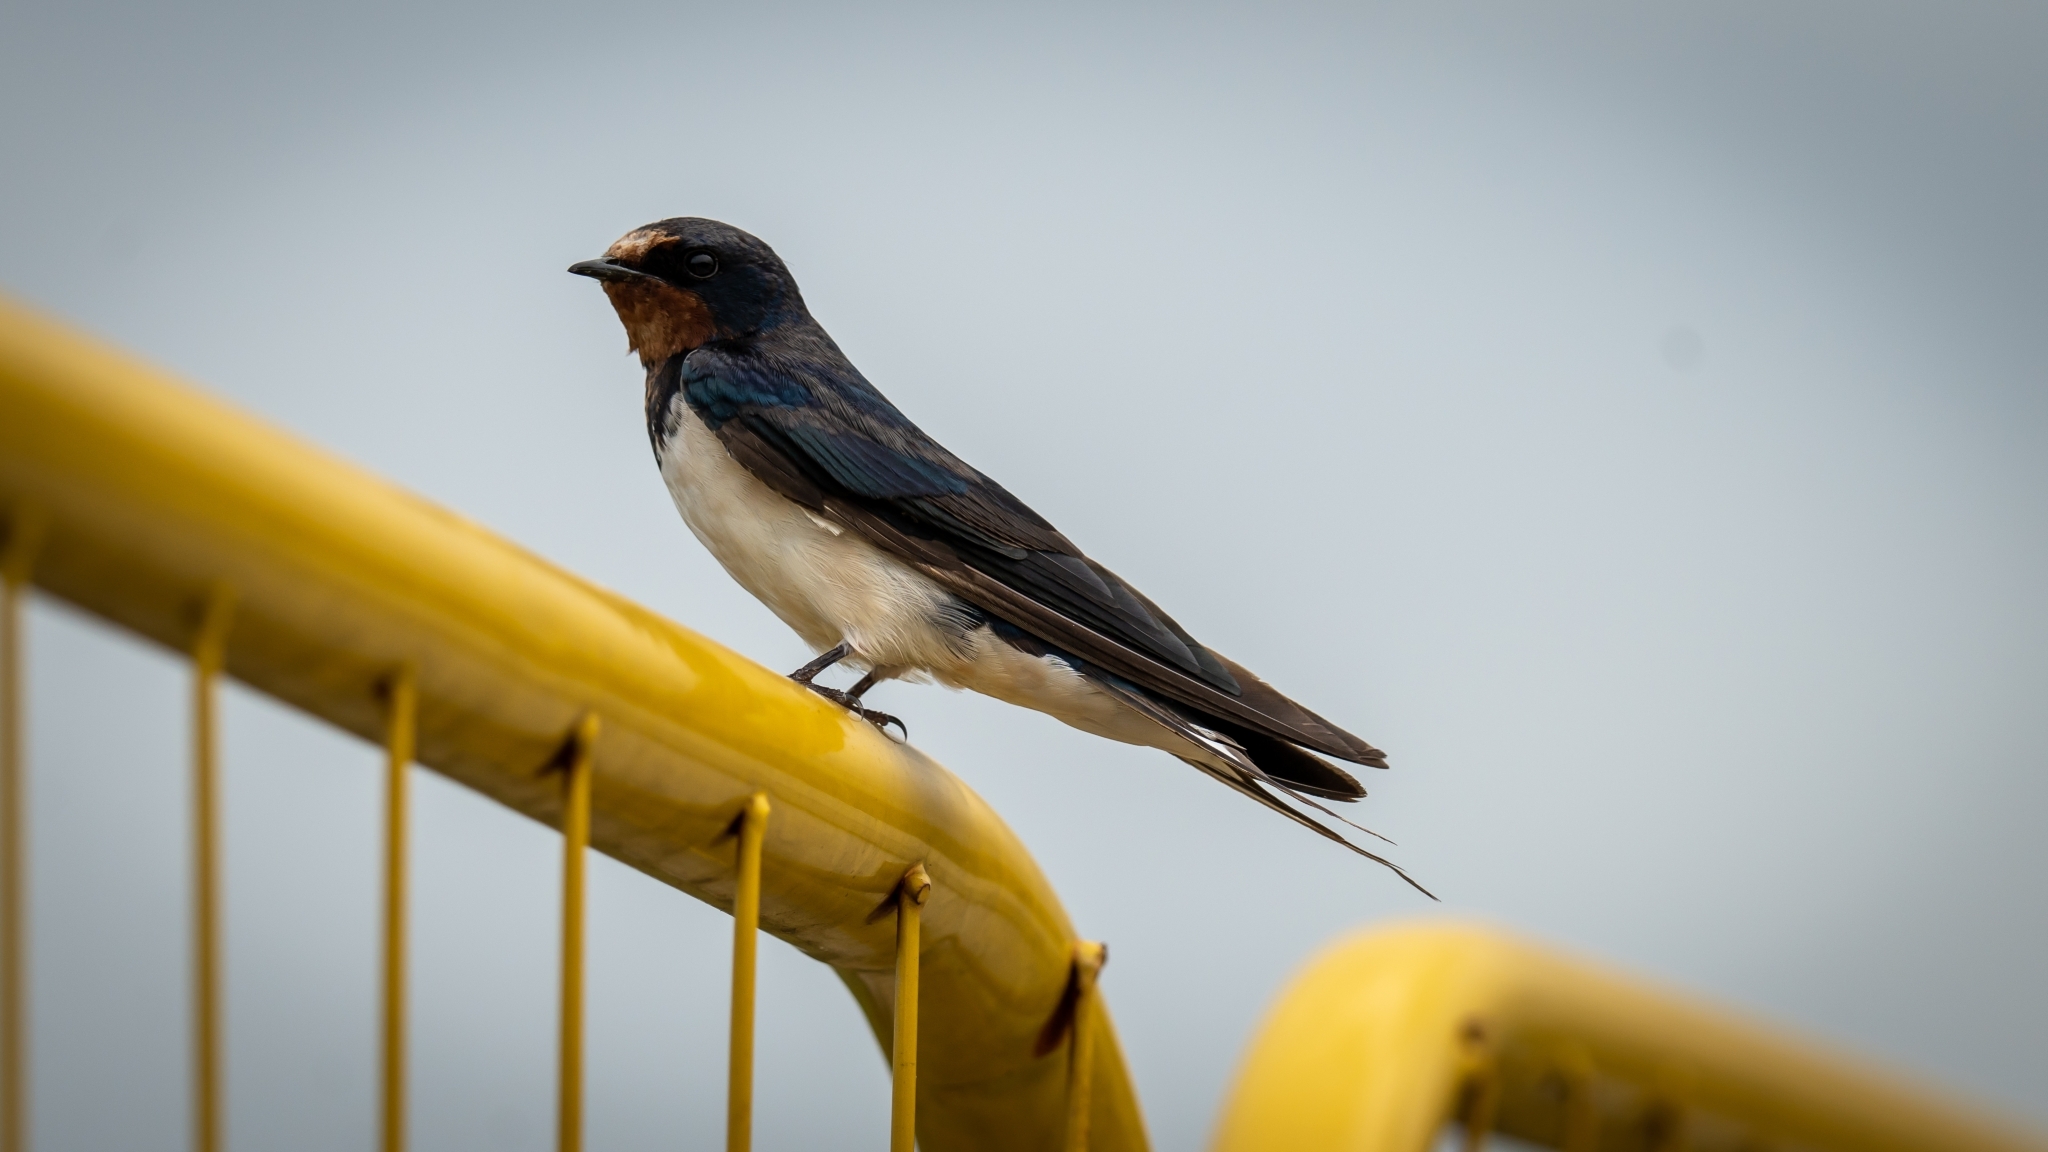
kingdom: Animalia
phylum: Chordata
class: Aves
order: Passeriformes
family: Hirundinidae
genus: Hirundo
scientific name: Hirundo rustica
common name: Barn swallow
